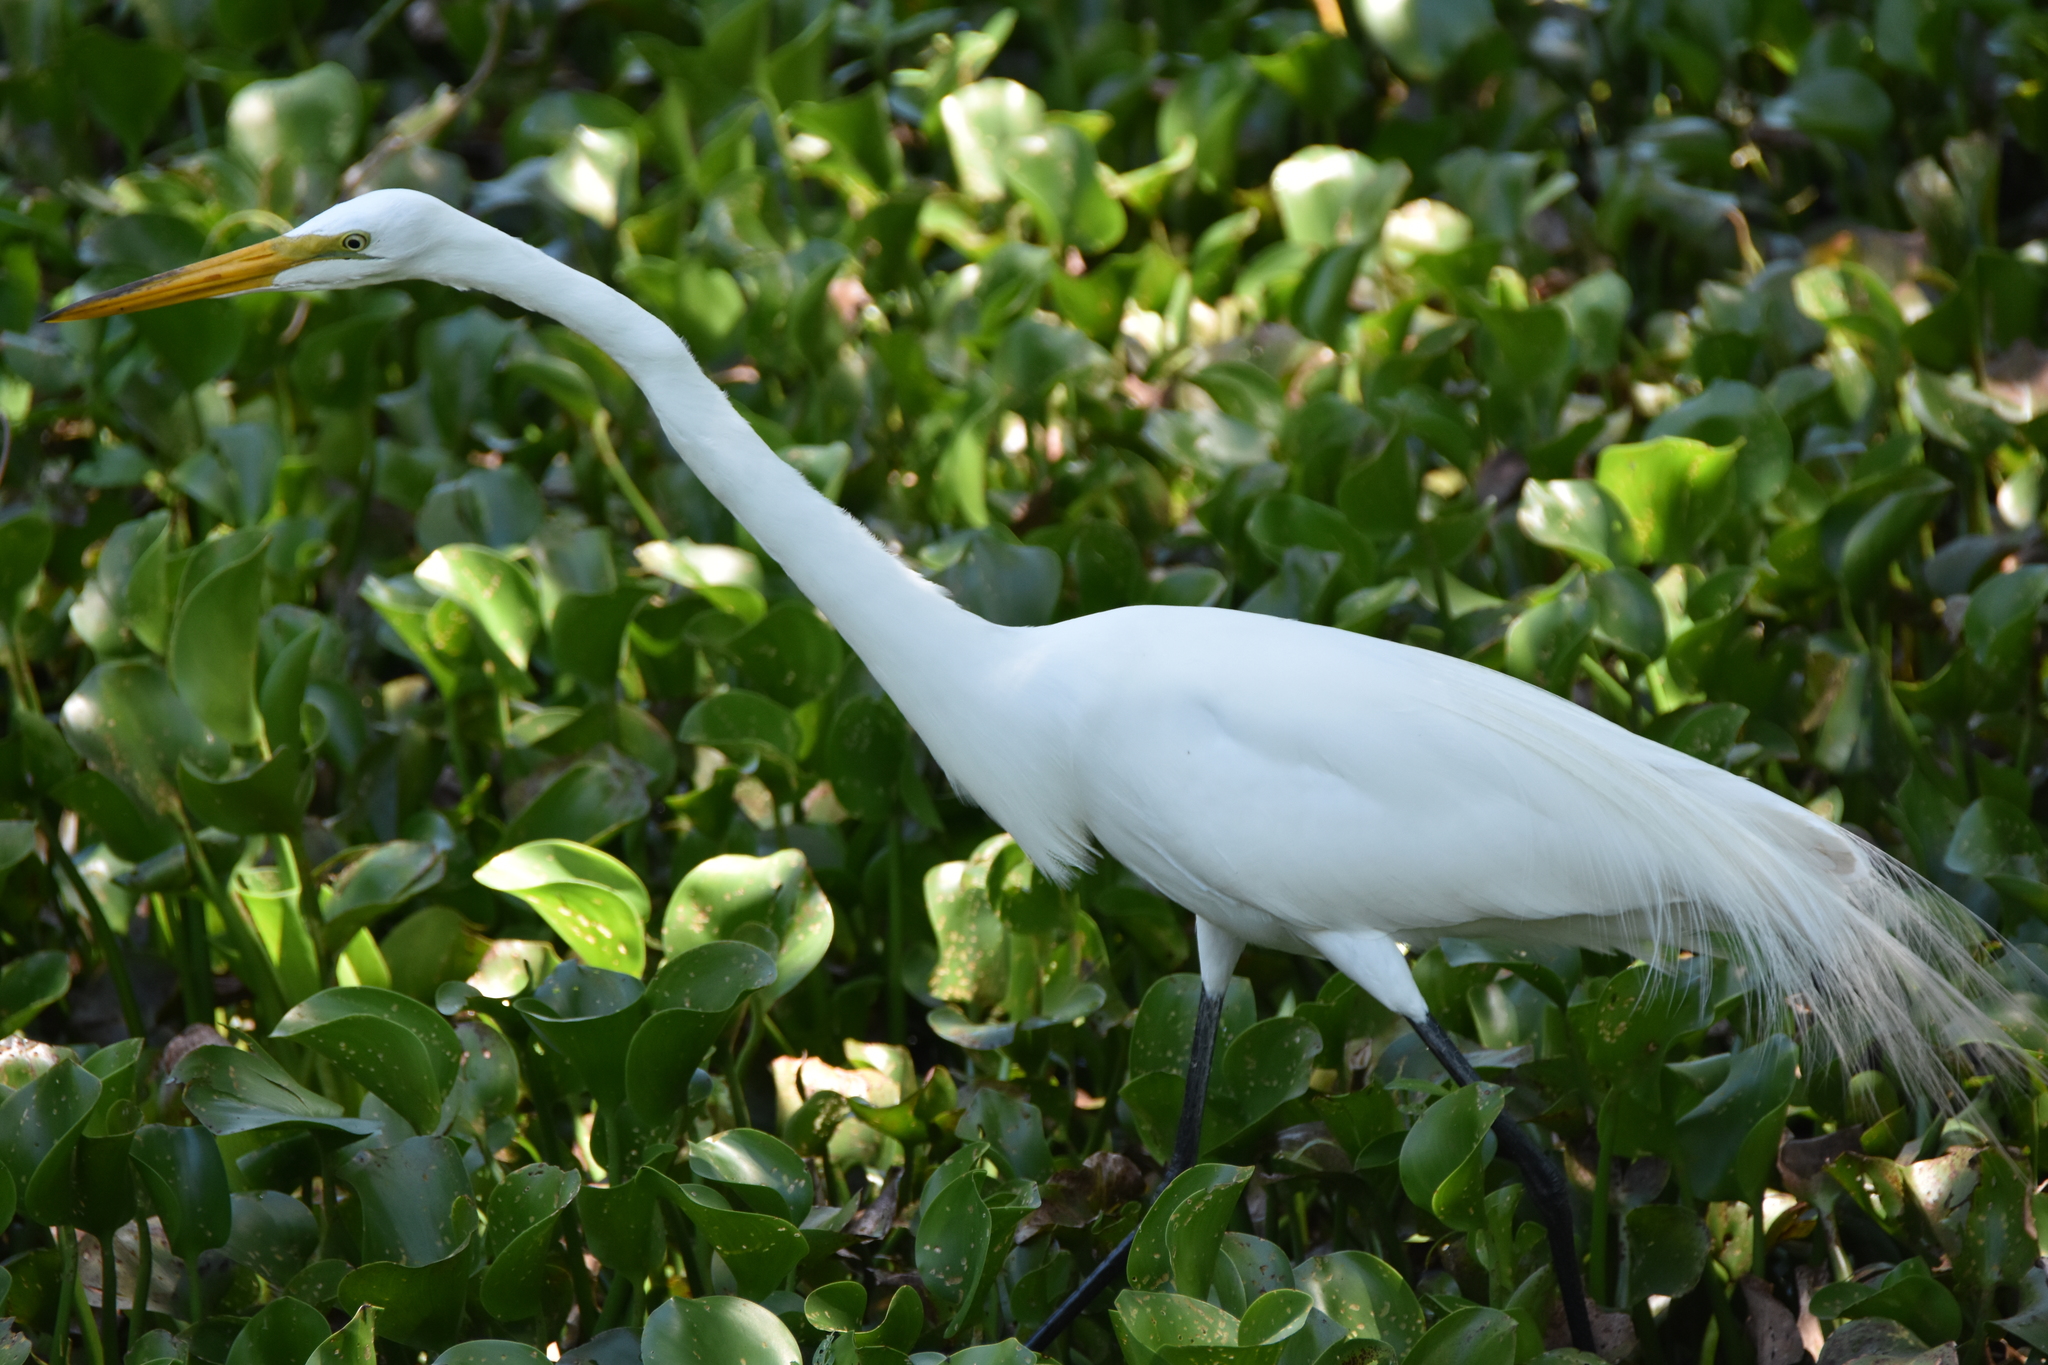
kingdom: Animalia
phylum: Chordata
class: Aves
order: Pelecaniformes
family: Ardeidae
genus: Ardea
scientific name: Ardea alba
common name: Great egret
